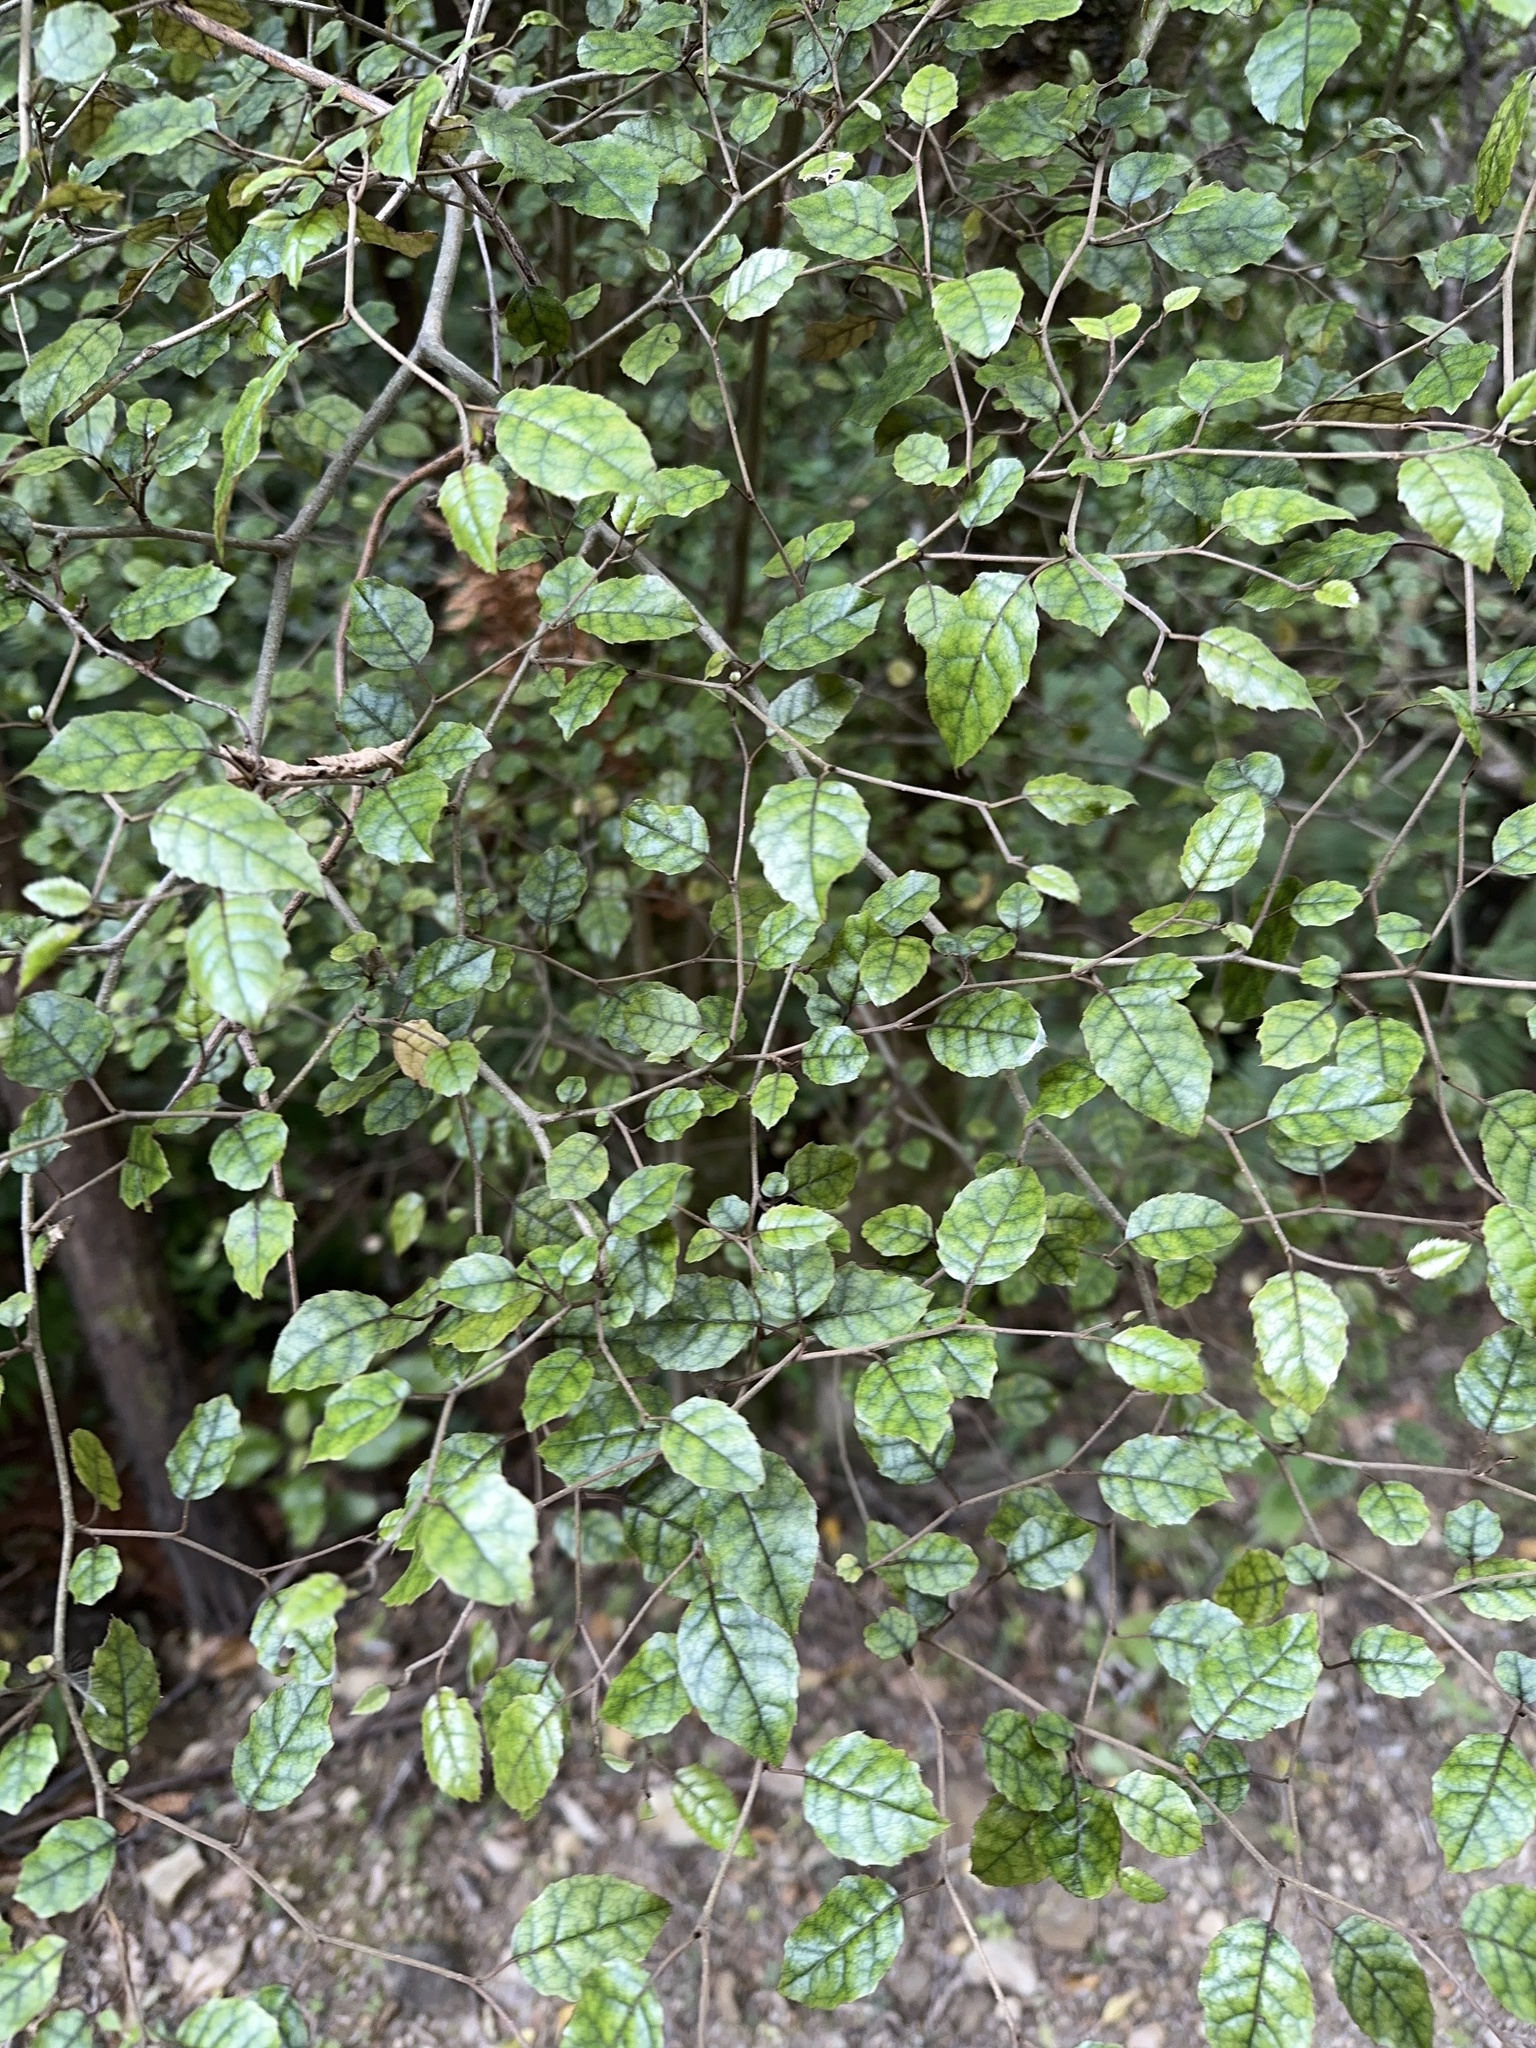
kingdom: Plantae
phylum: Tracheophyta
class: Magnoliopsida
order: Asterales
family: Rousseaceae
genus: Carpodetus
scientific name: Carpodetus serratus
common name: White mapau
